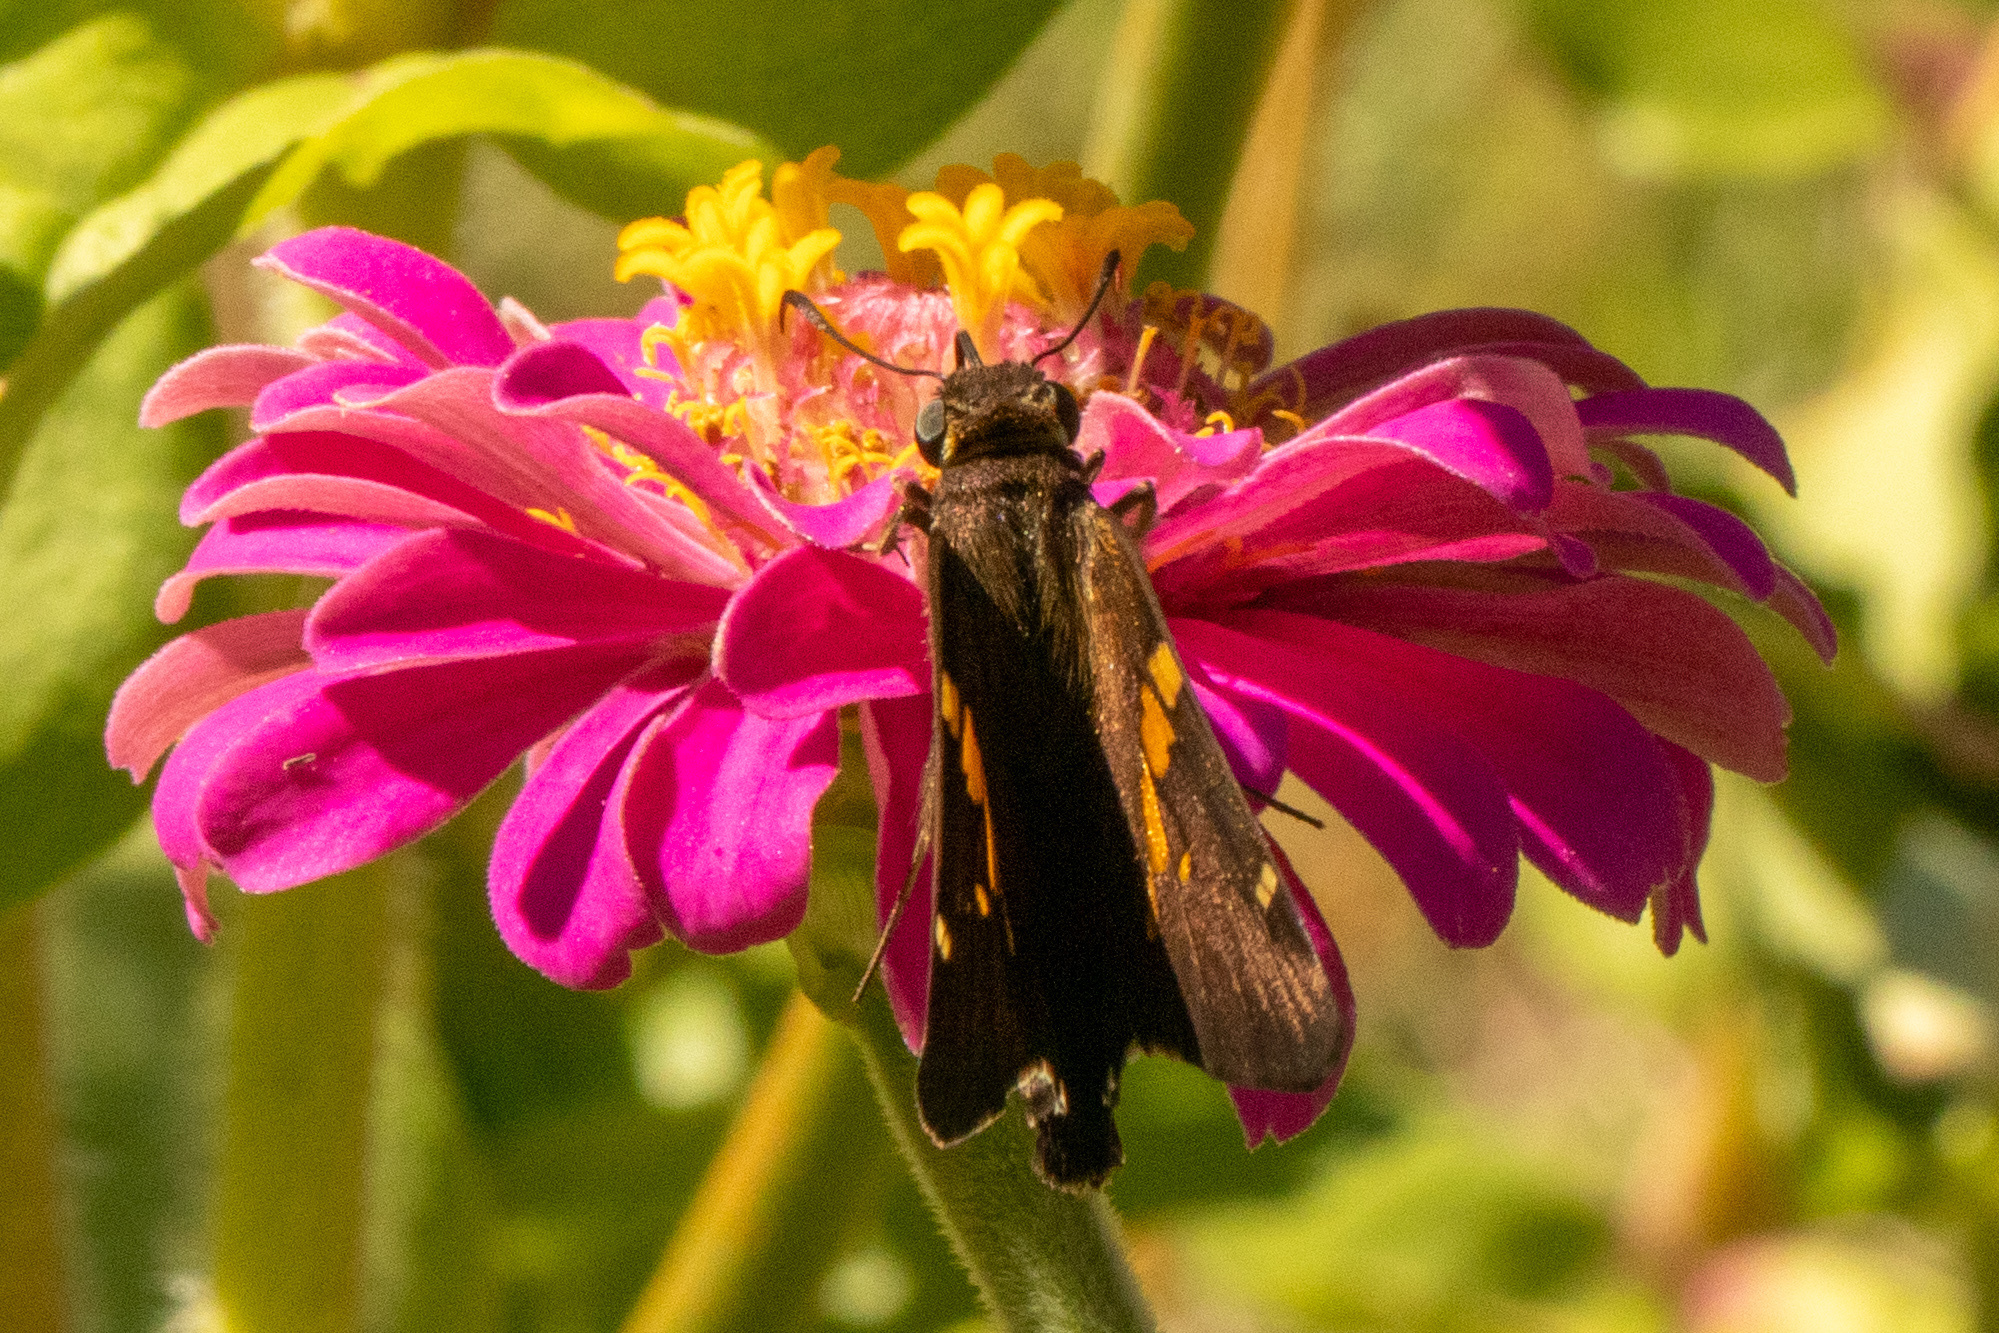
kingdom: Animalia
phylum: Arthropoda
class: Insecta
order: Lepidoptera
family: Hesperiidae
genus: Epargyreus
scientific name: Epargyreus clarus
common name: Silver-spotted skipper
